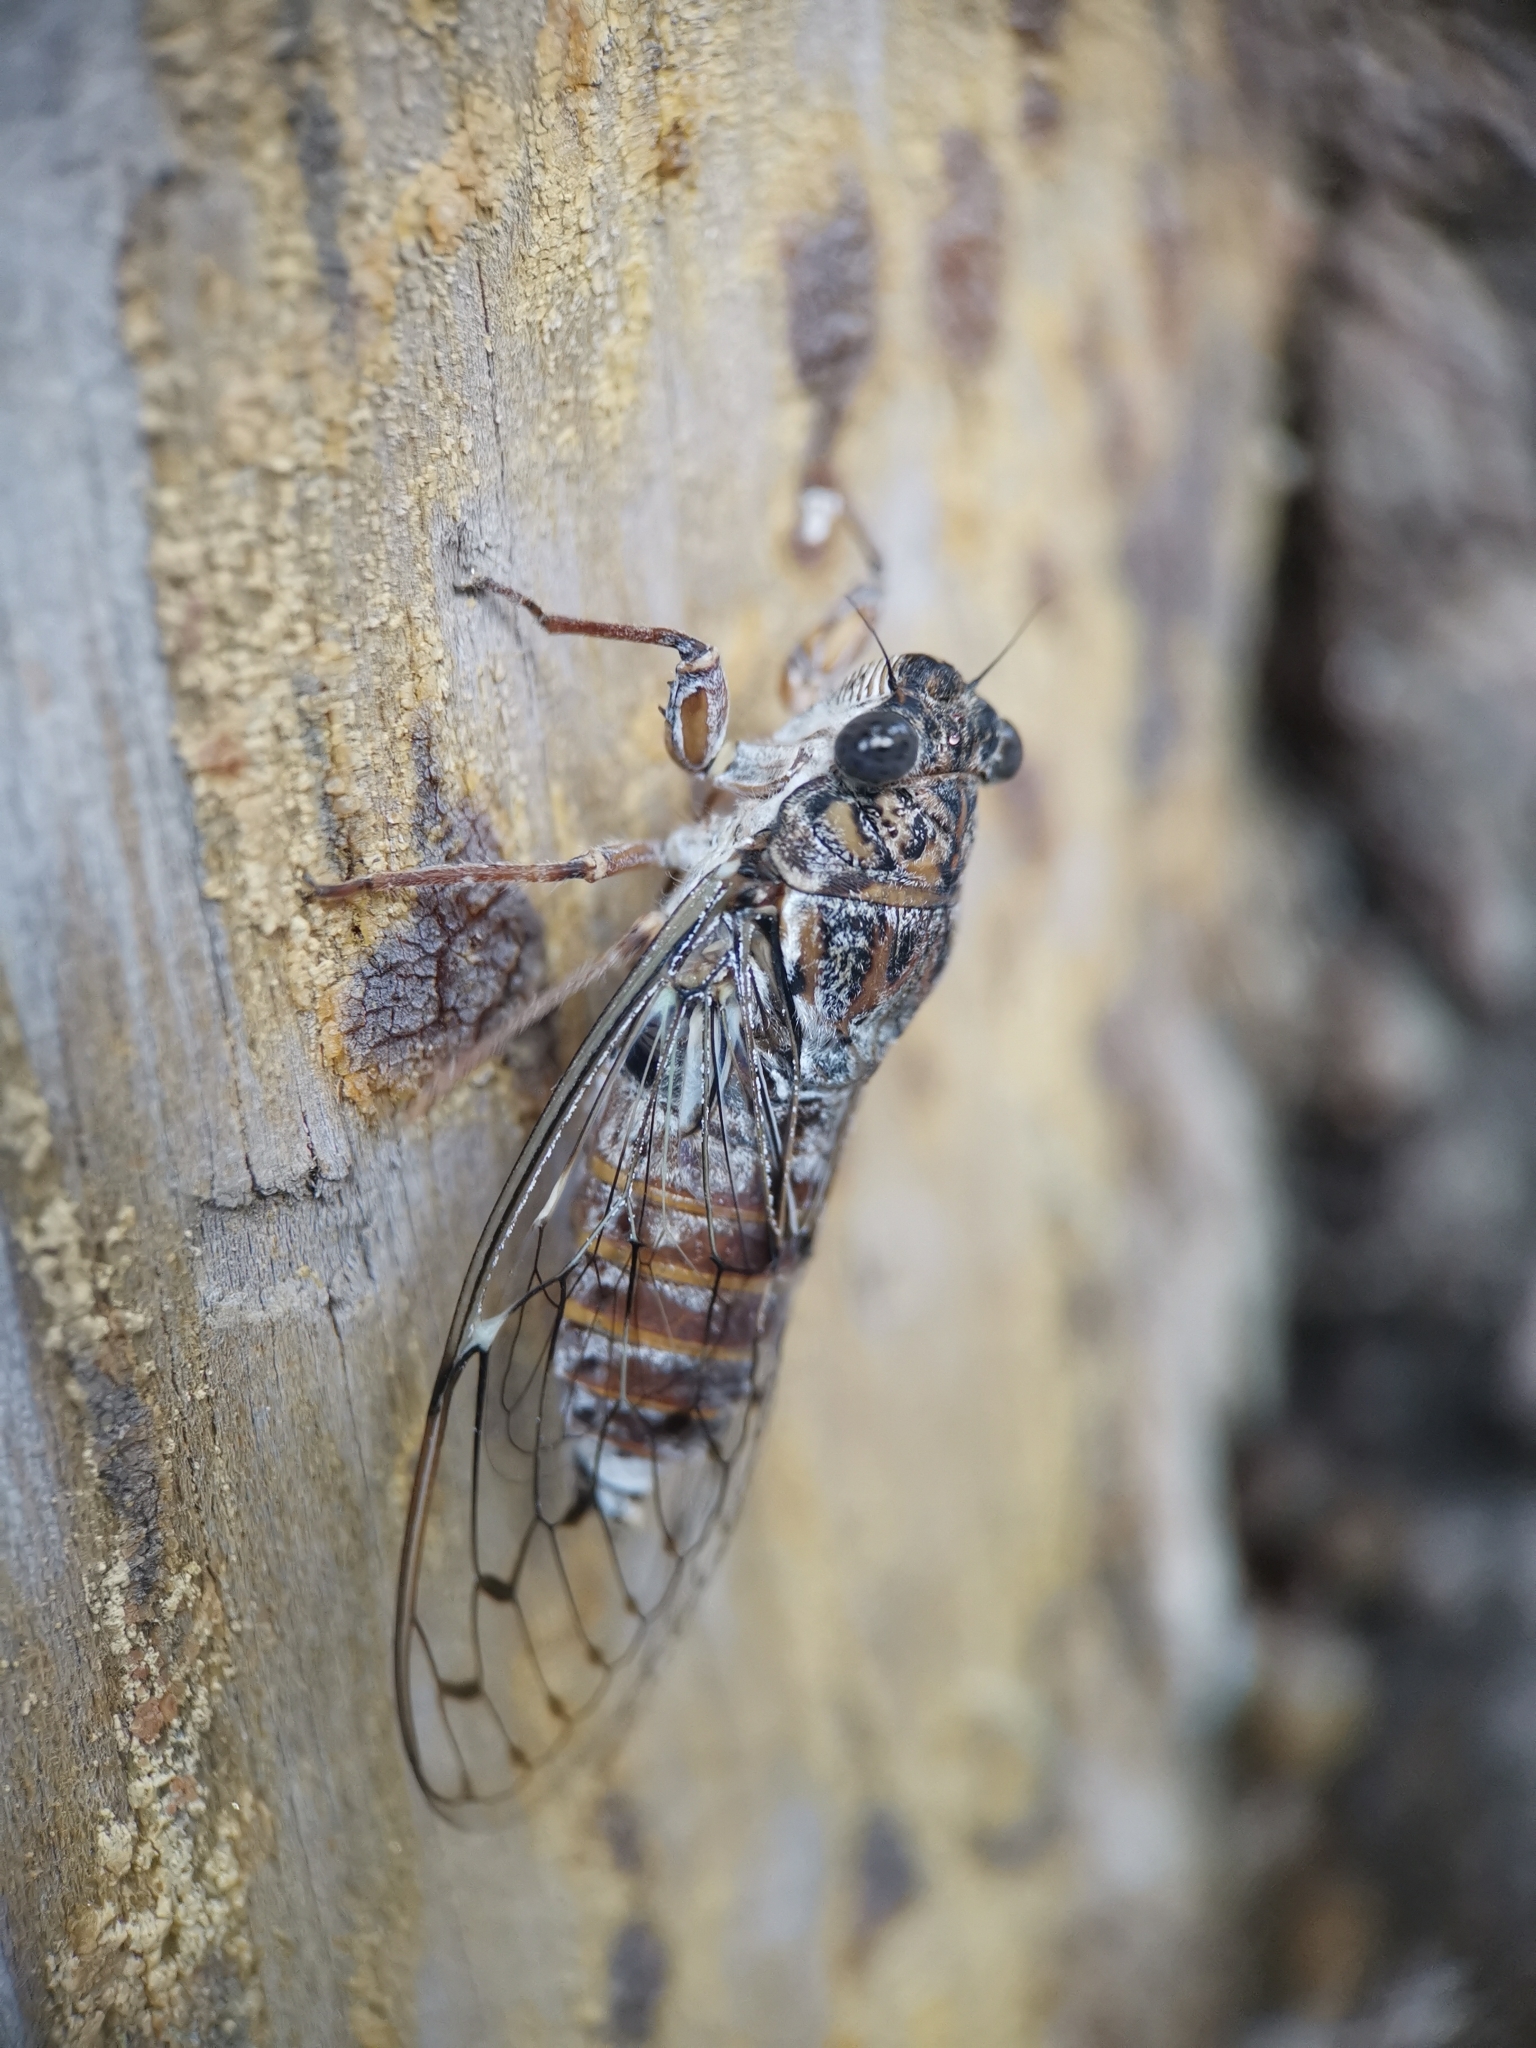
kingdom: Animalia
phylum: Arthropoda
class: Insecta
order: Hemiptera
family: Cicadidae
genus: Cicada
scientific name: Cicada orni
